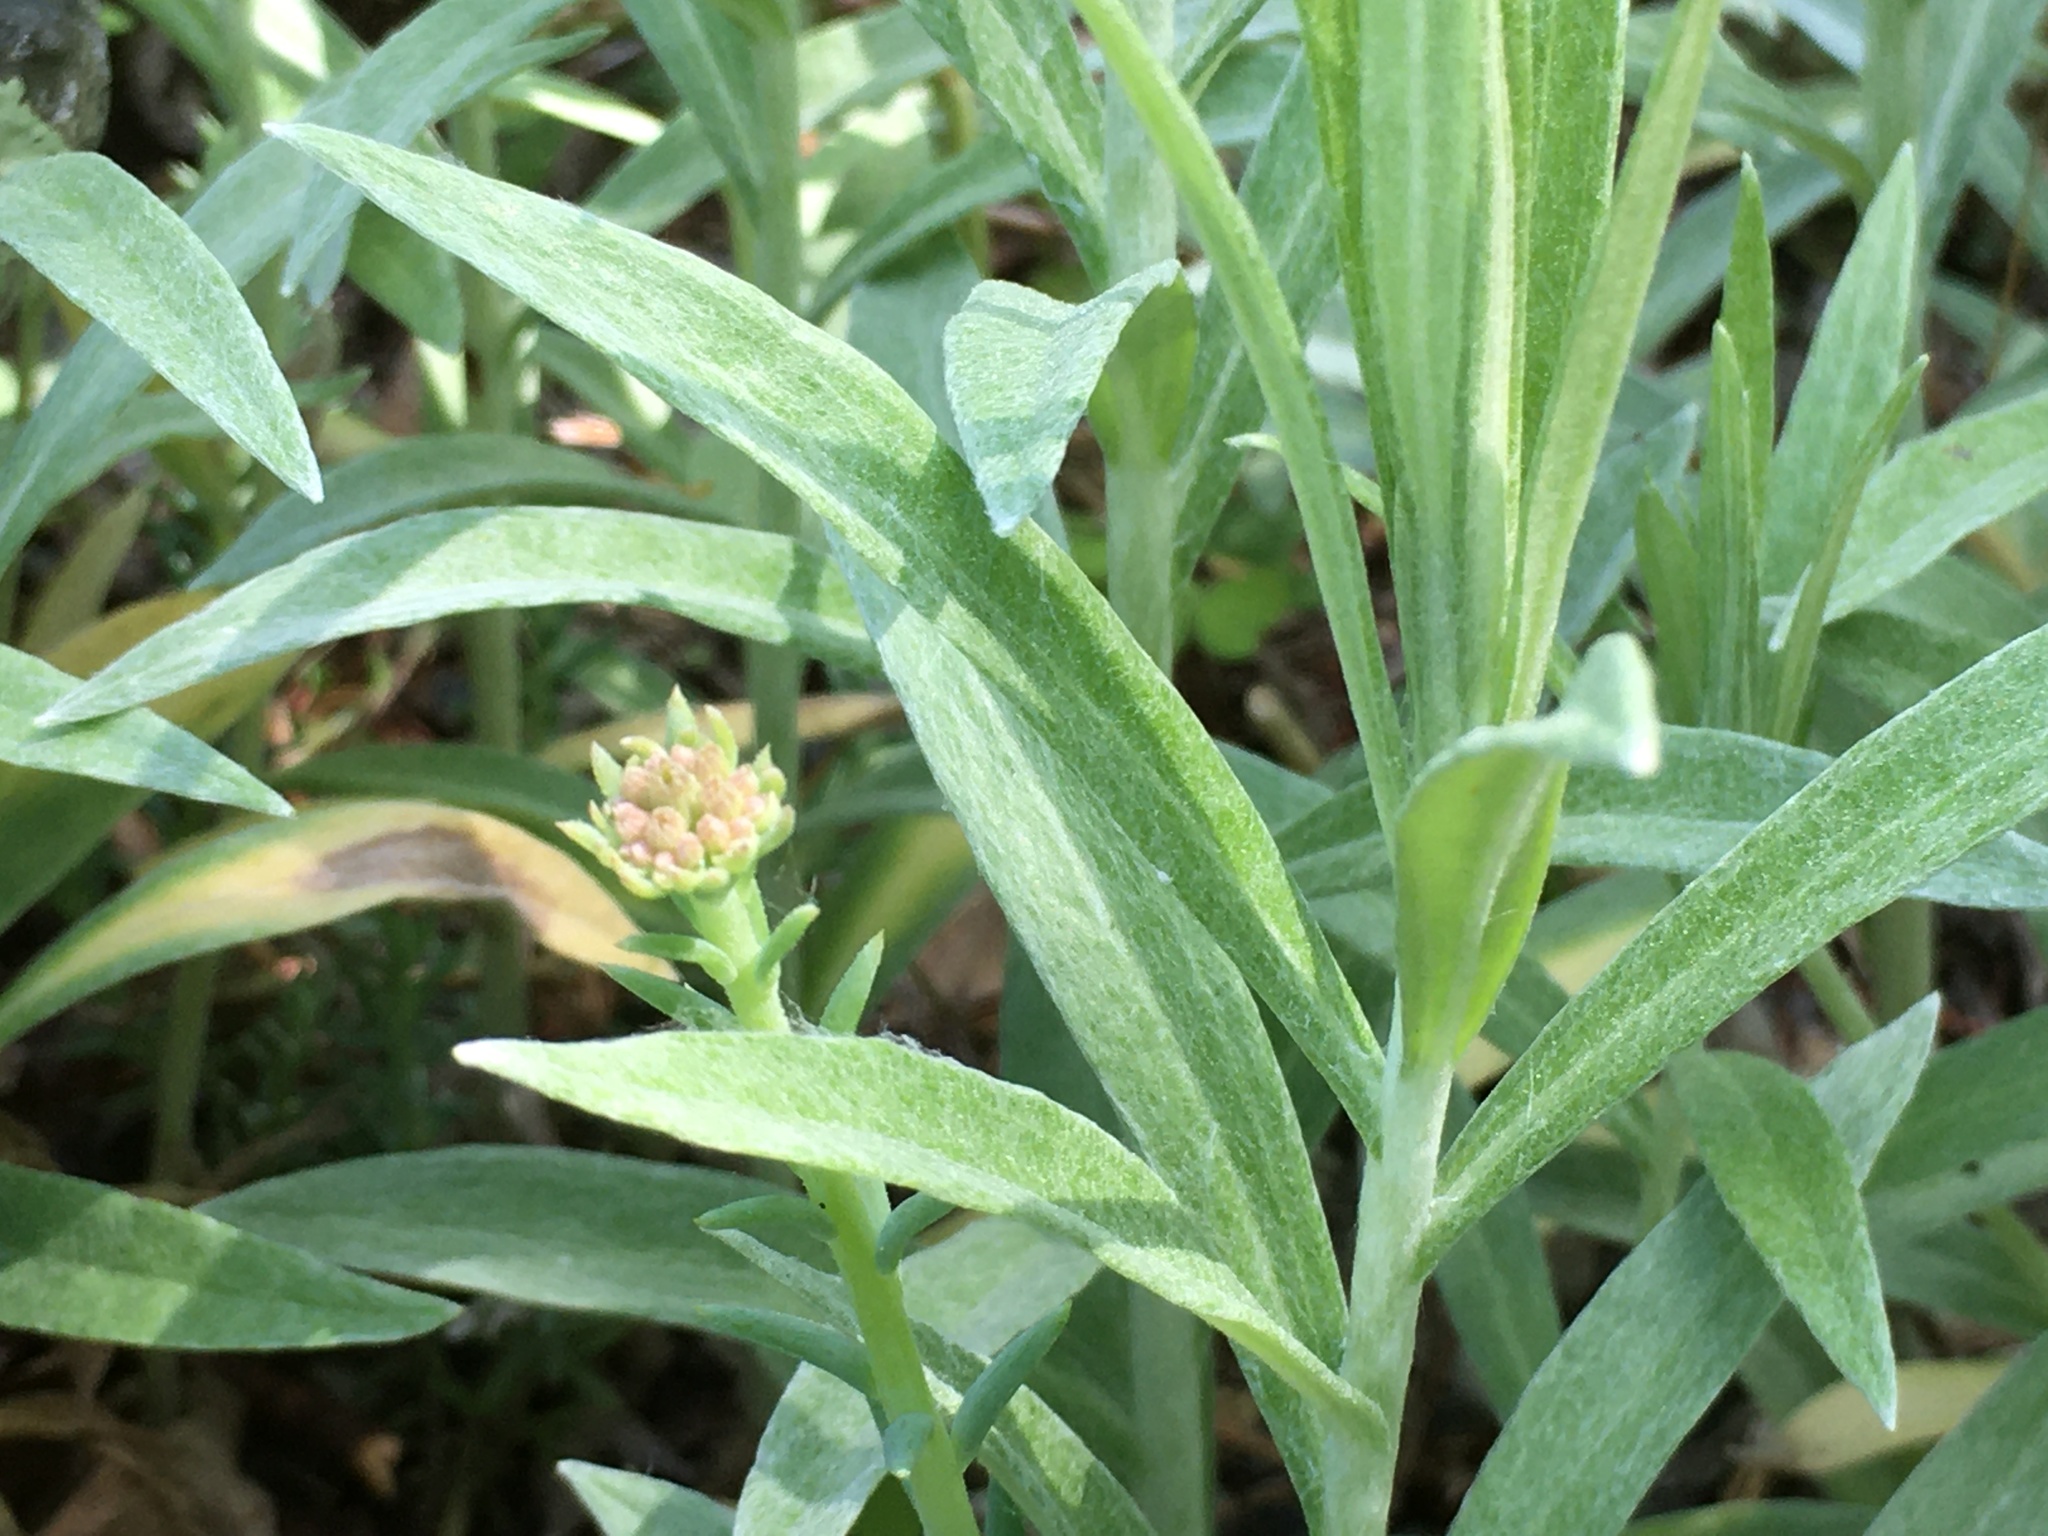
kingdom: Plantae
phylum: Tracheophyta
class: Magnoliopsida
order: Asterales
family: Asteraceae
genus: Anaphalis
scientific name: Anaphalis margaritacea
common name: Pearly everlasting
